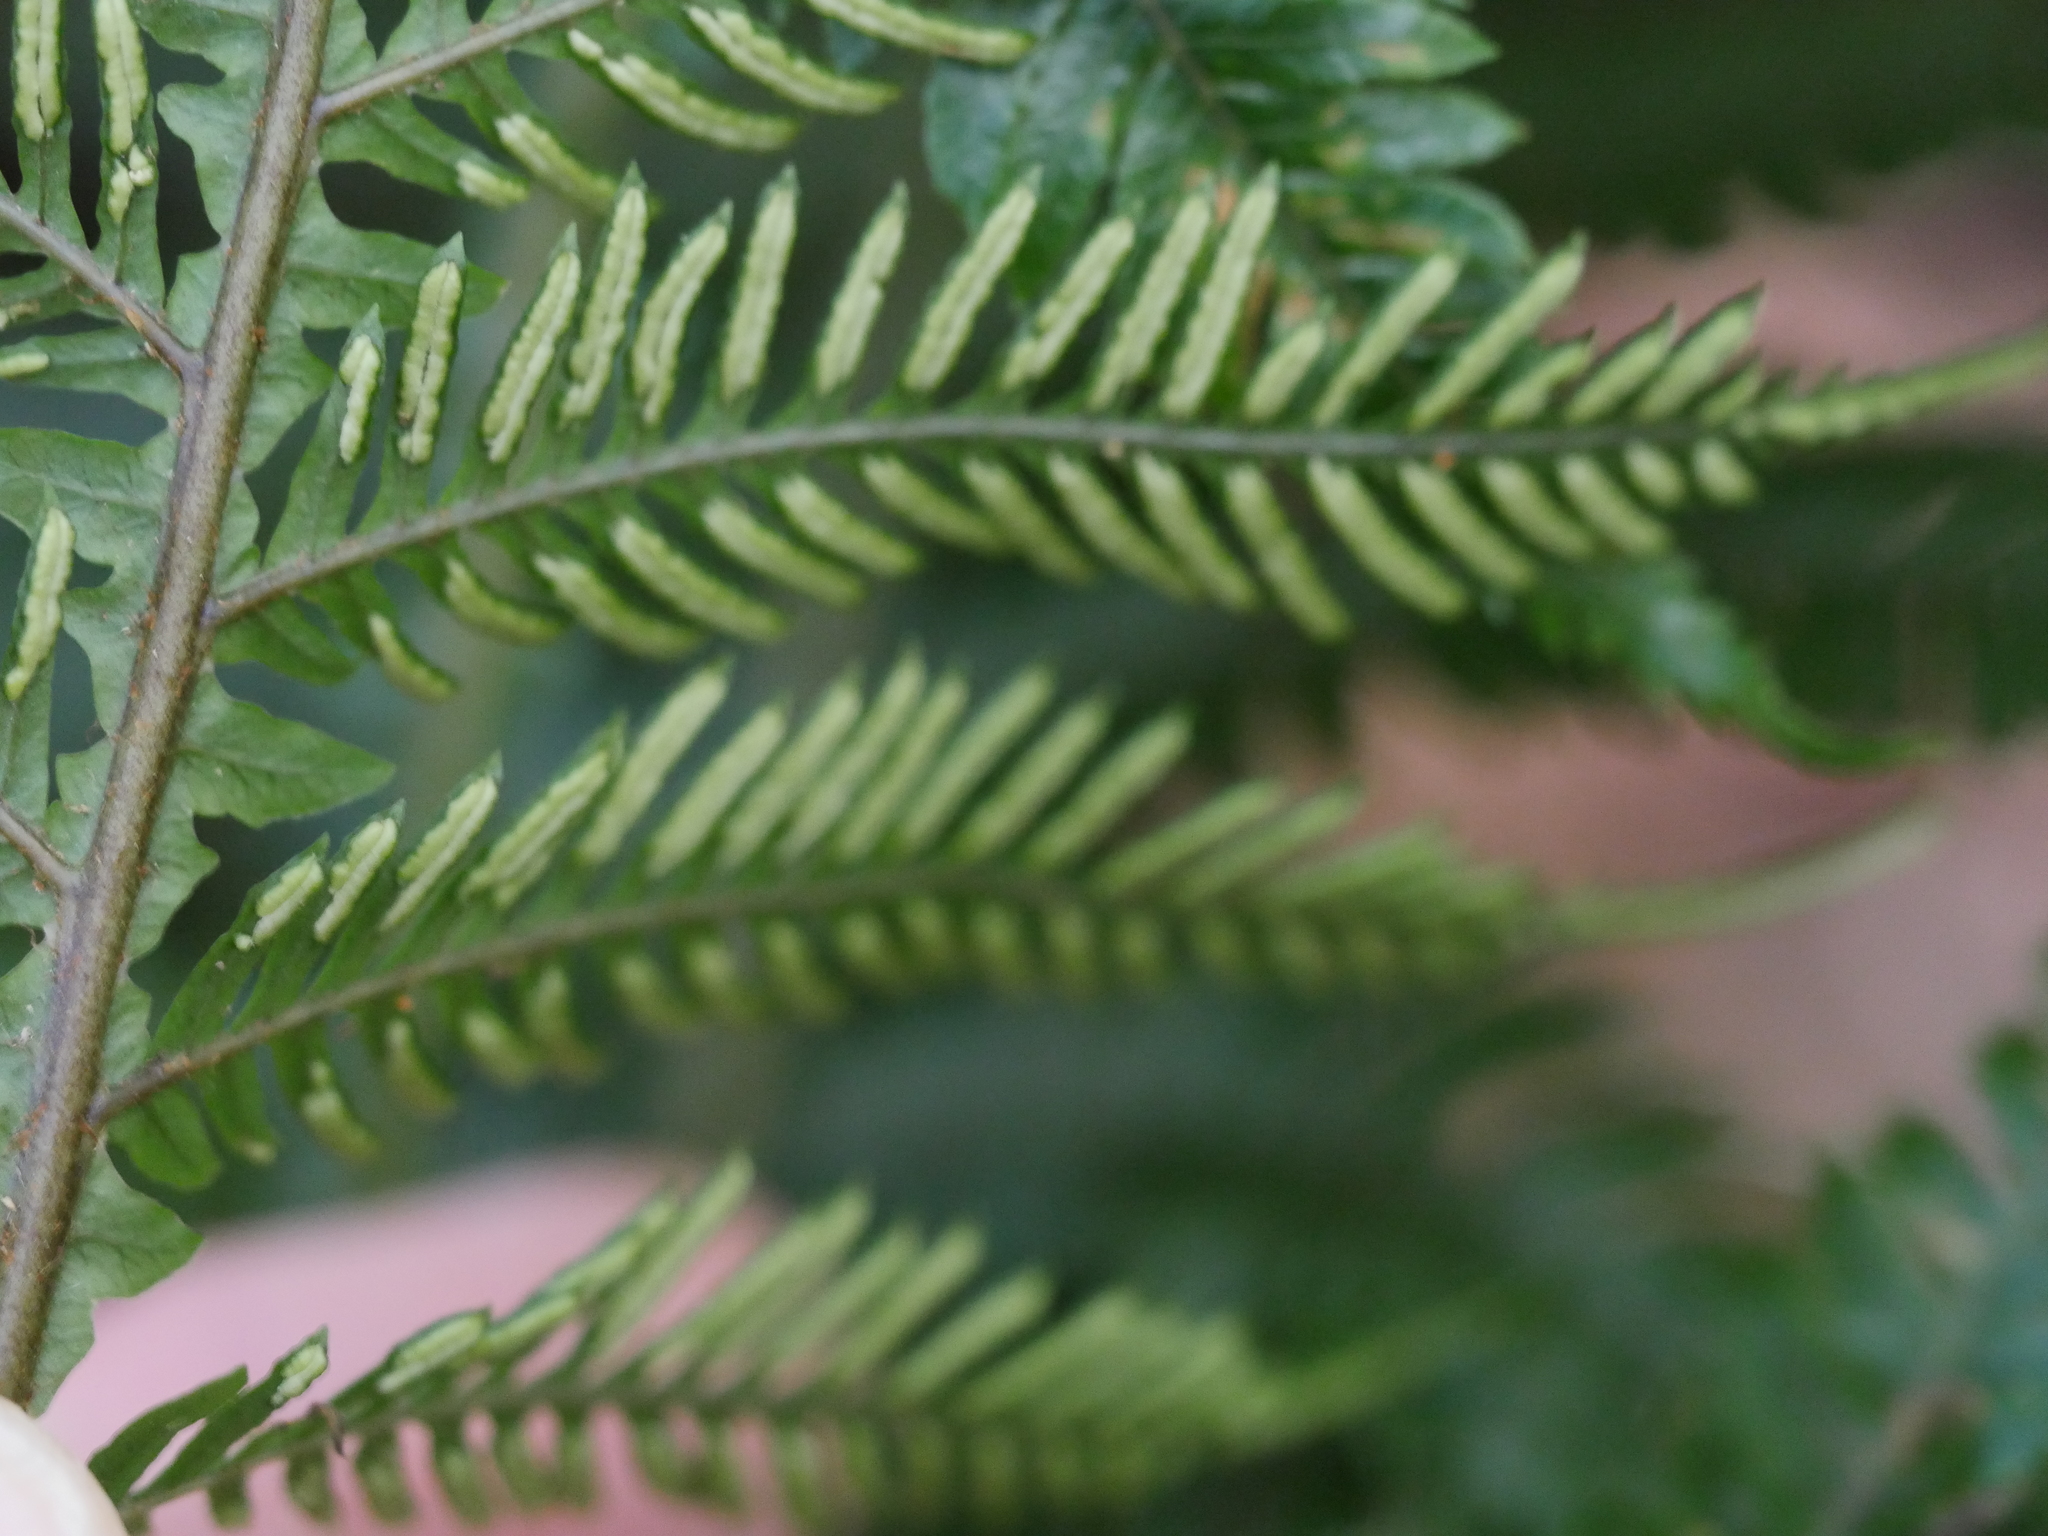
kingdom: Plantae
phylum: Tracheophyta
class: Polypodiopsida
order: Polypodiales
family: Blechnaceae
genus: Diploblechnum
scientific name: Diploblechnum fraseri
